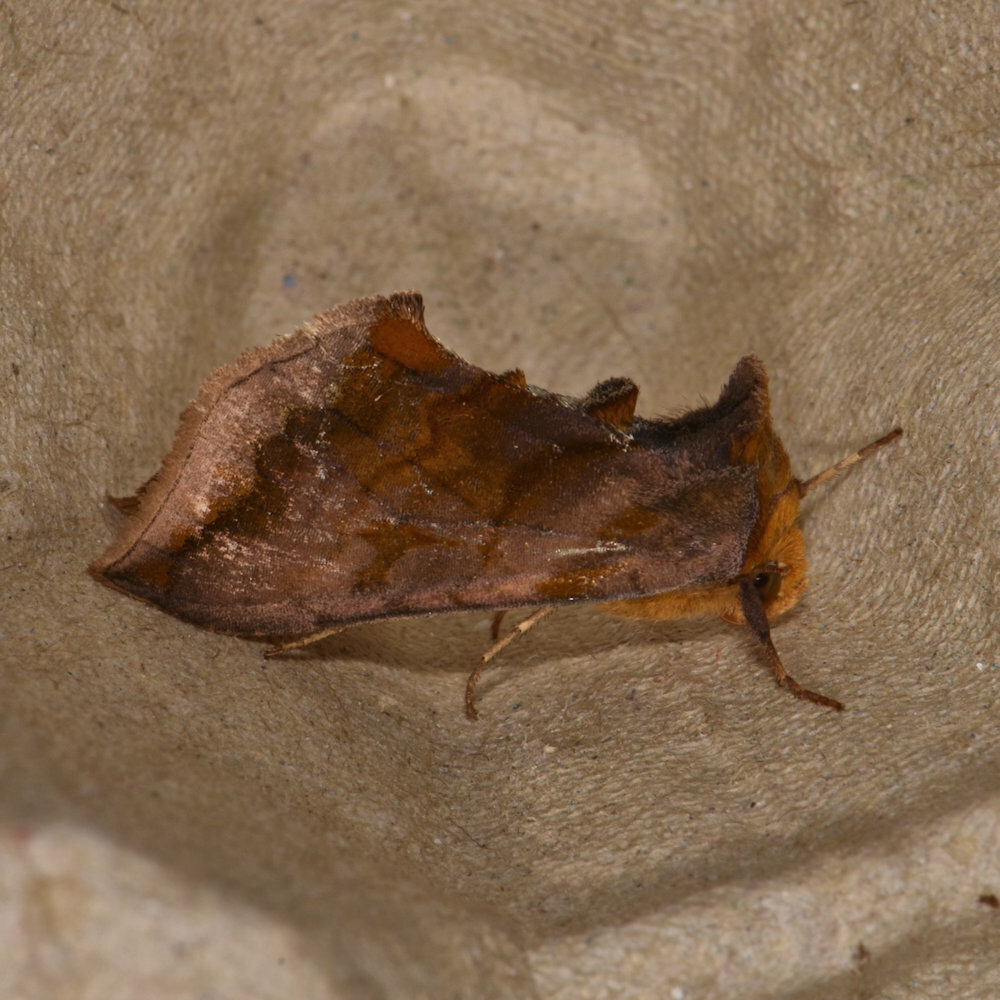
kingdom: Animalia
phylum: Arthropoda
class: Insecta
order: Lepidoptera
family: Noctuidae
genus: Allagrapha
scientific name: Allagrapha aerea
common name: Unspotted looper moth
